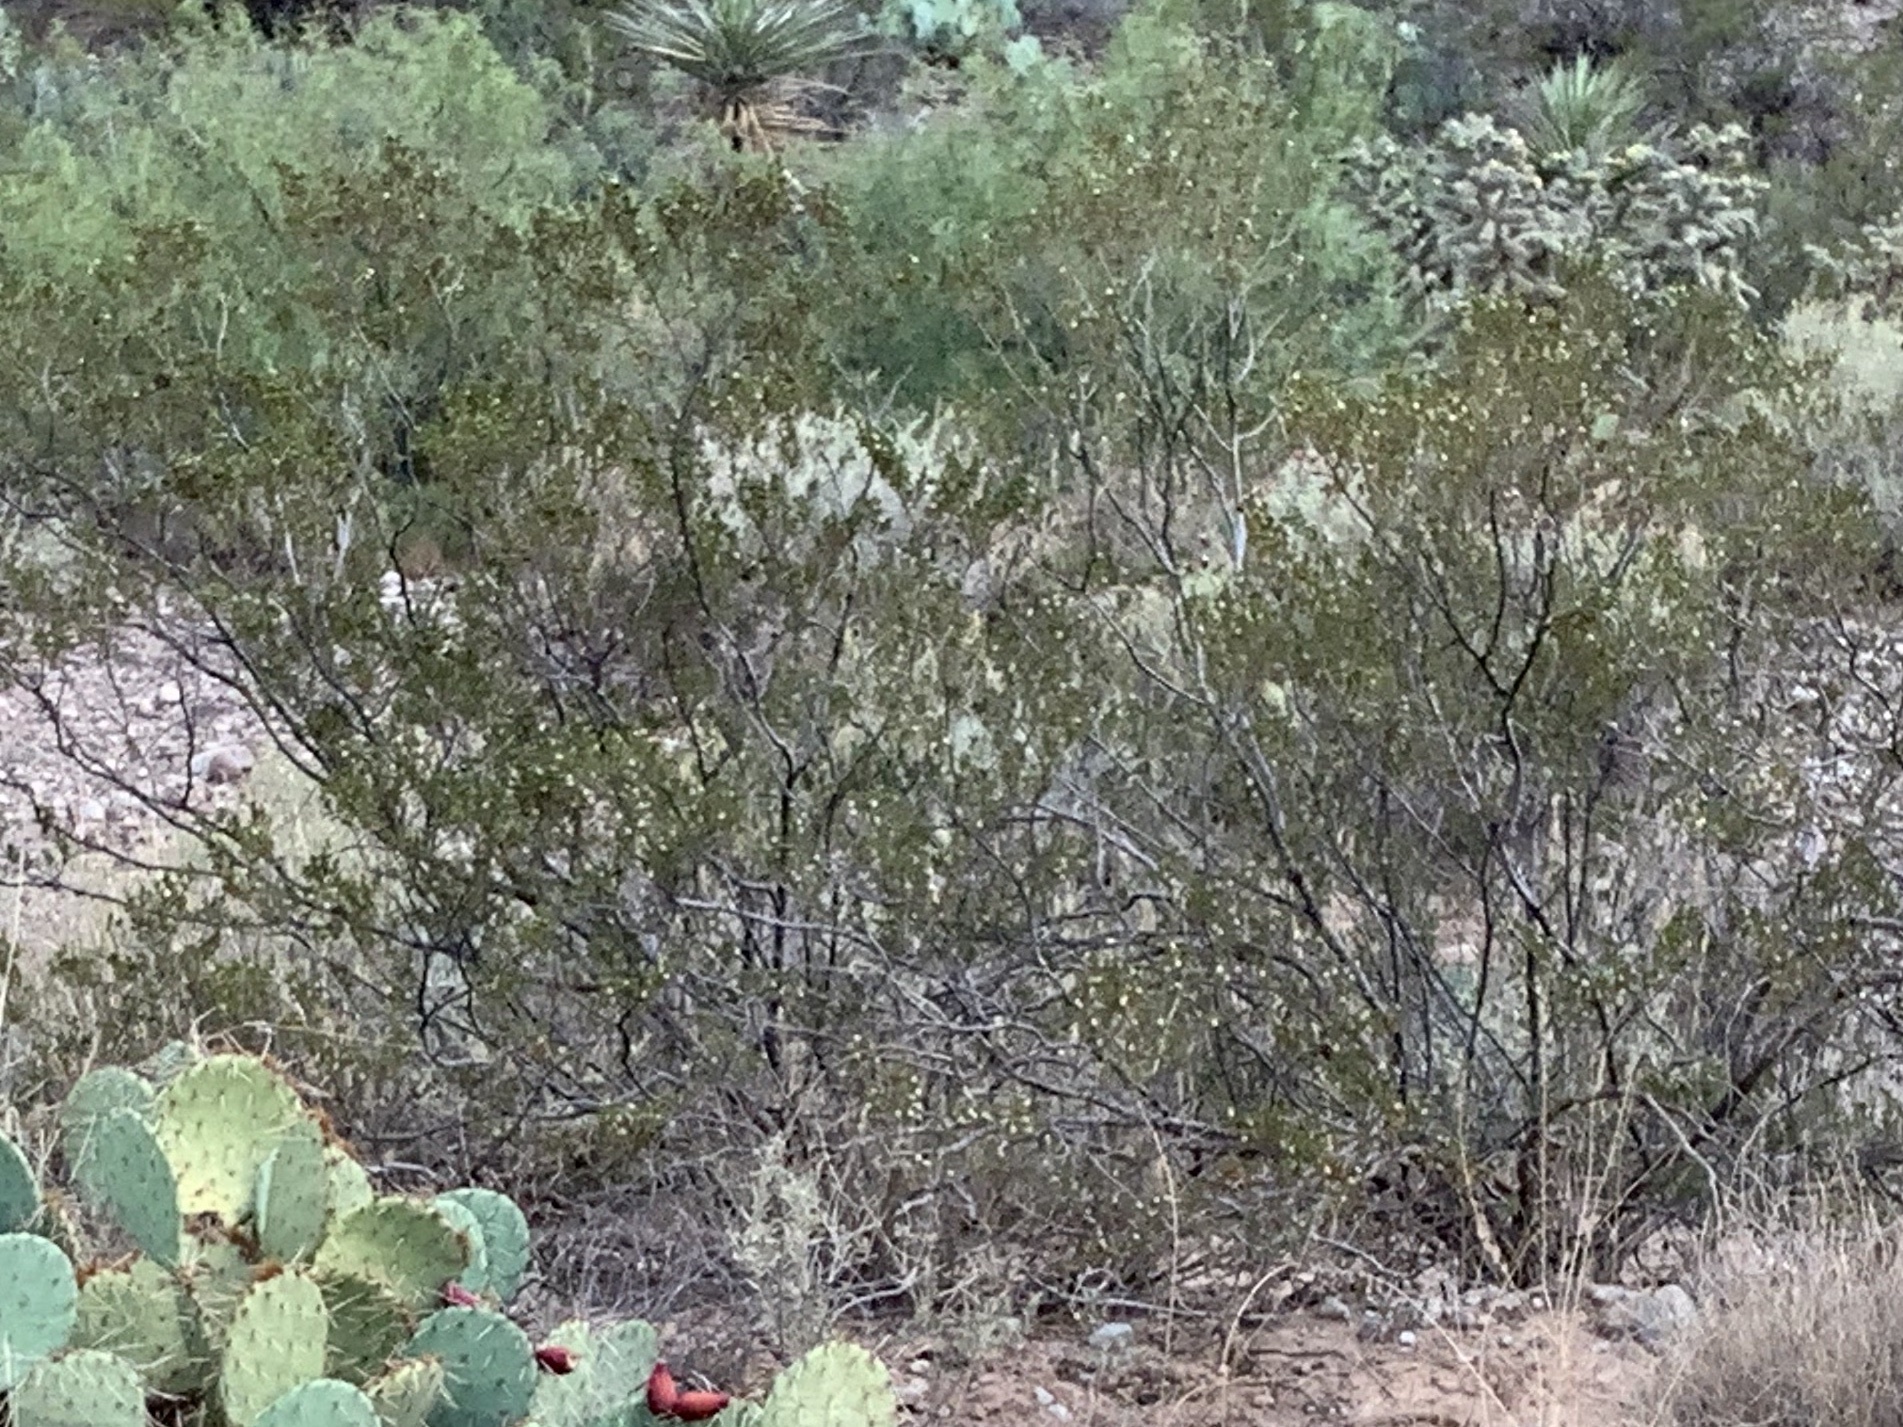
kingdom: Plantae
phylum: Tracheophyta
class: Magnoliopsida
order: Zygophyllales
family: Zygophyllaceae
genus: Larrea
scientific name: Larrea tridentata
